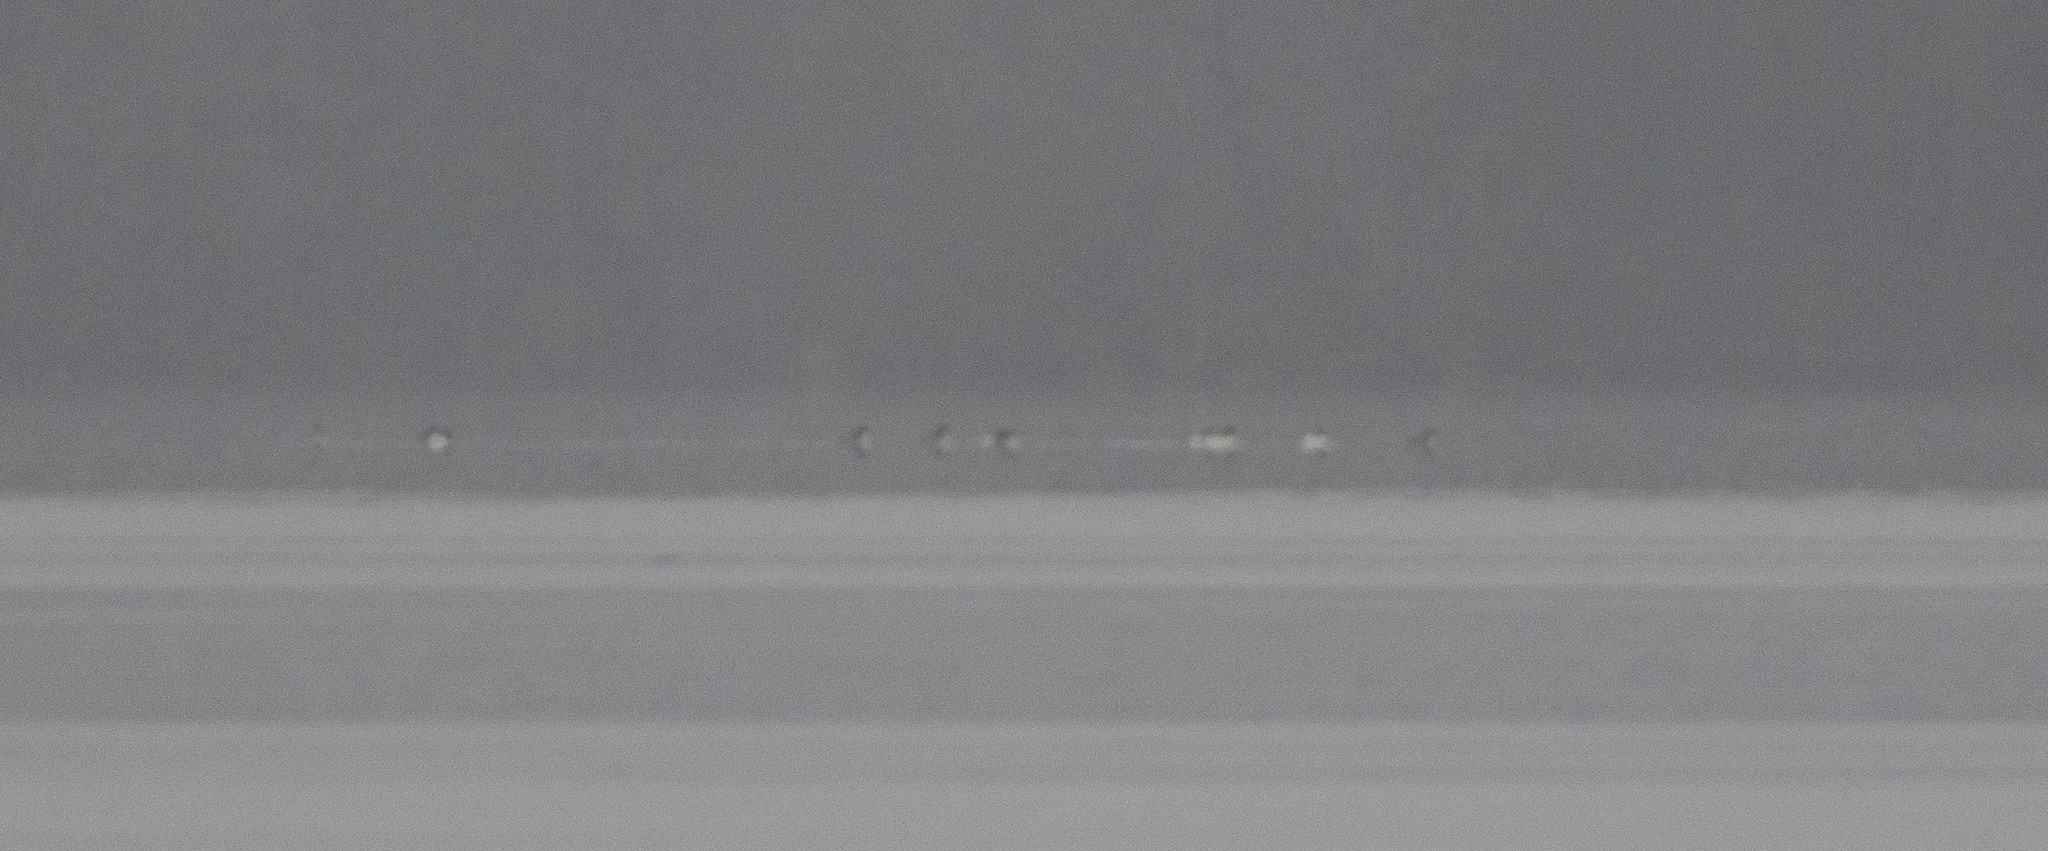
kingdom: Animalia
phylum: Chordata
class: Aves
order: Anseriformes
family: Anatidae
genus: Mergus
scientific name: Mergus merganser
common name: Common merganser
